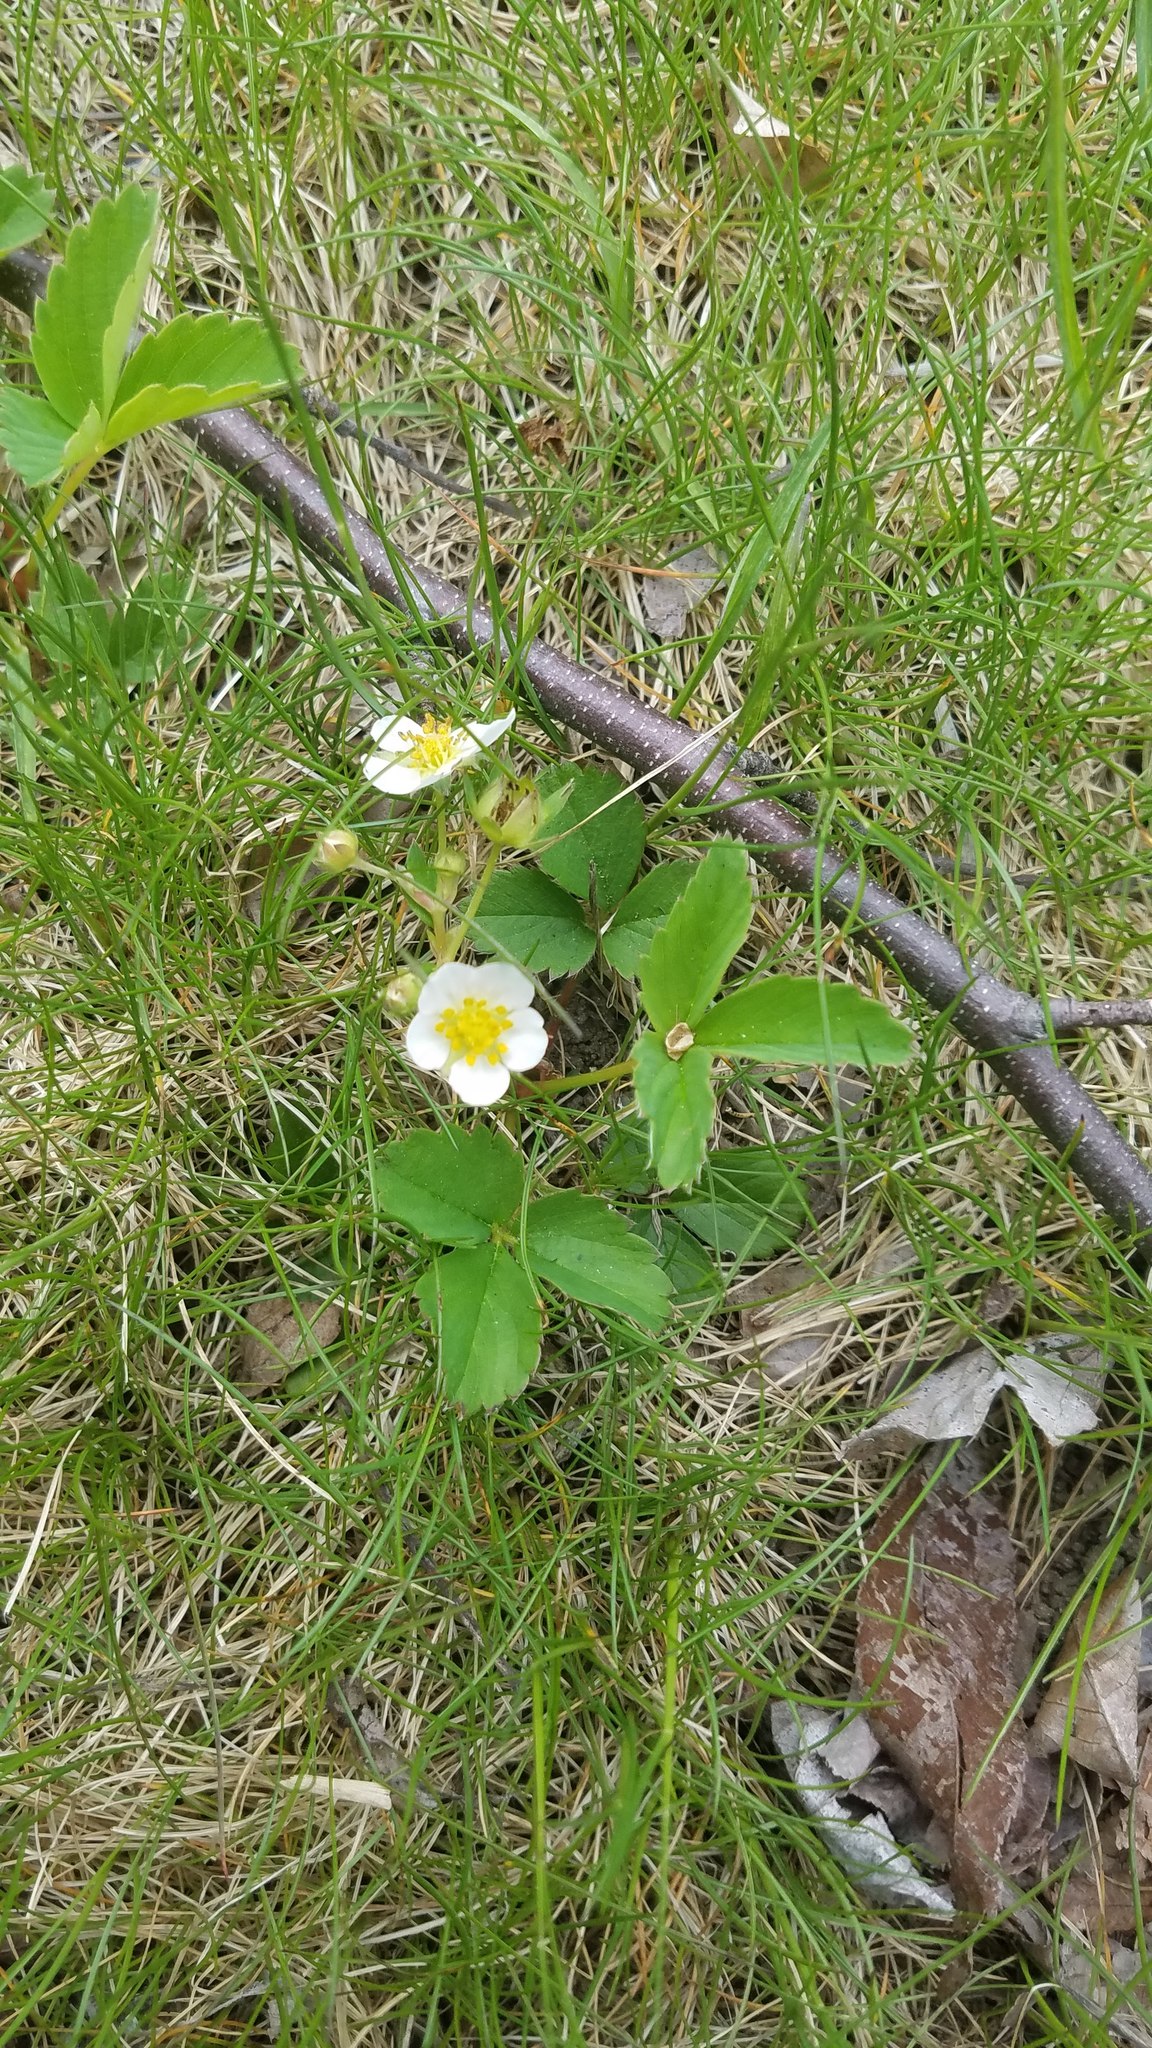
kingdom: Plantae
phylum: Tracheophyta
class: Magnoliopsida
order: Rosales
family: Rosaceae
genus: Fragaria
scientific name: Fragaria virginiana
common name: Thickleaved wild strawberry
